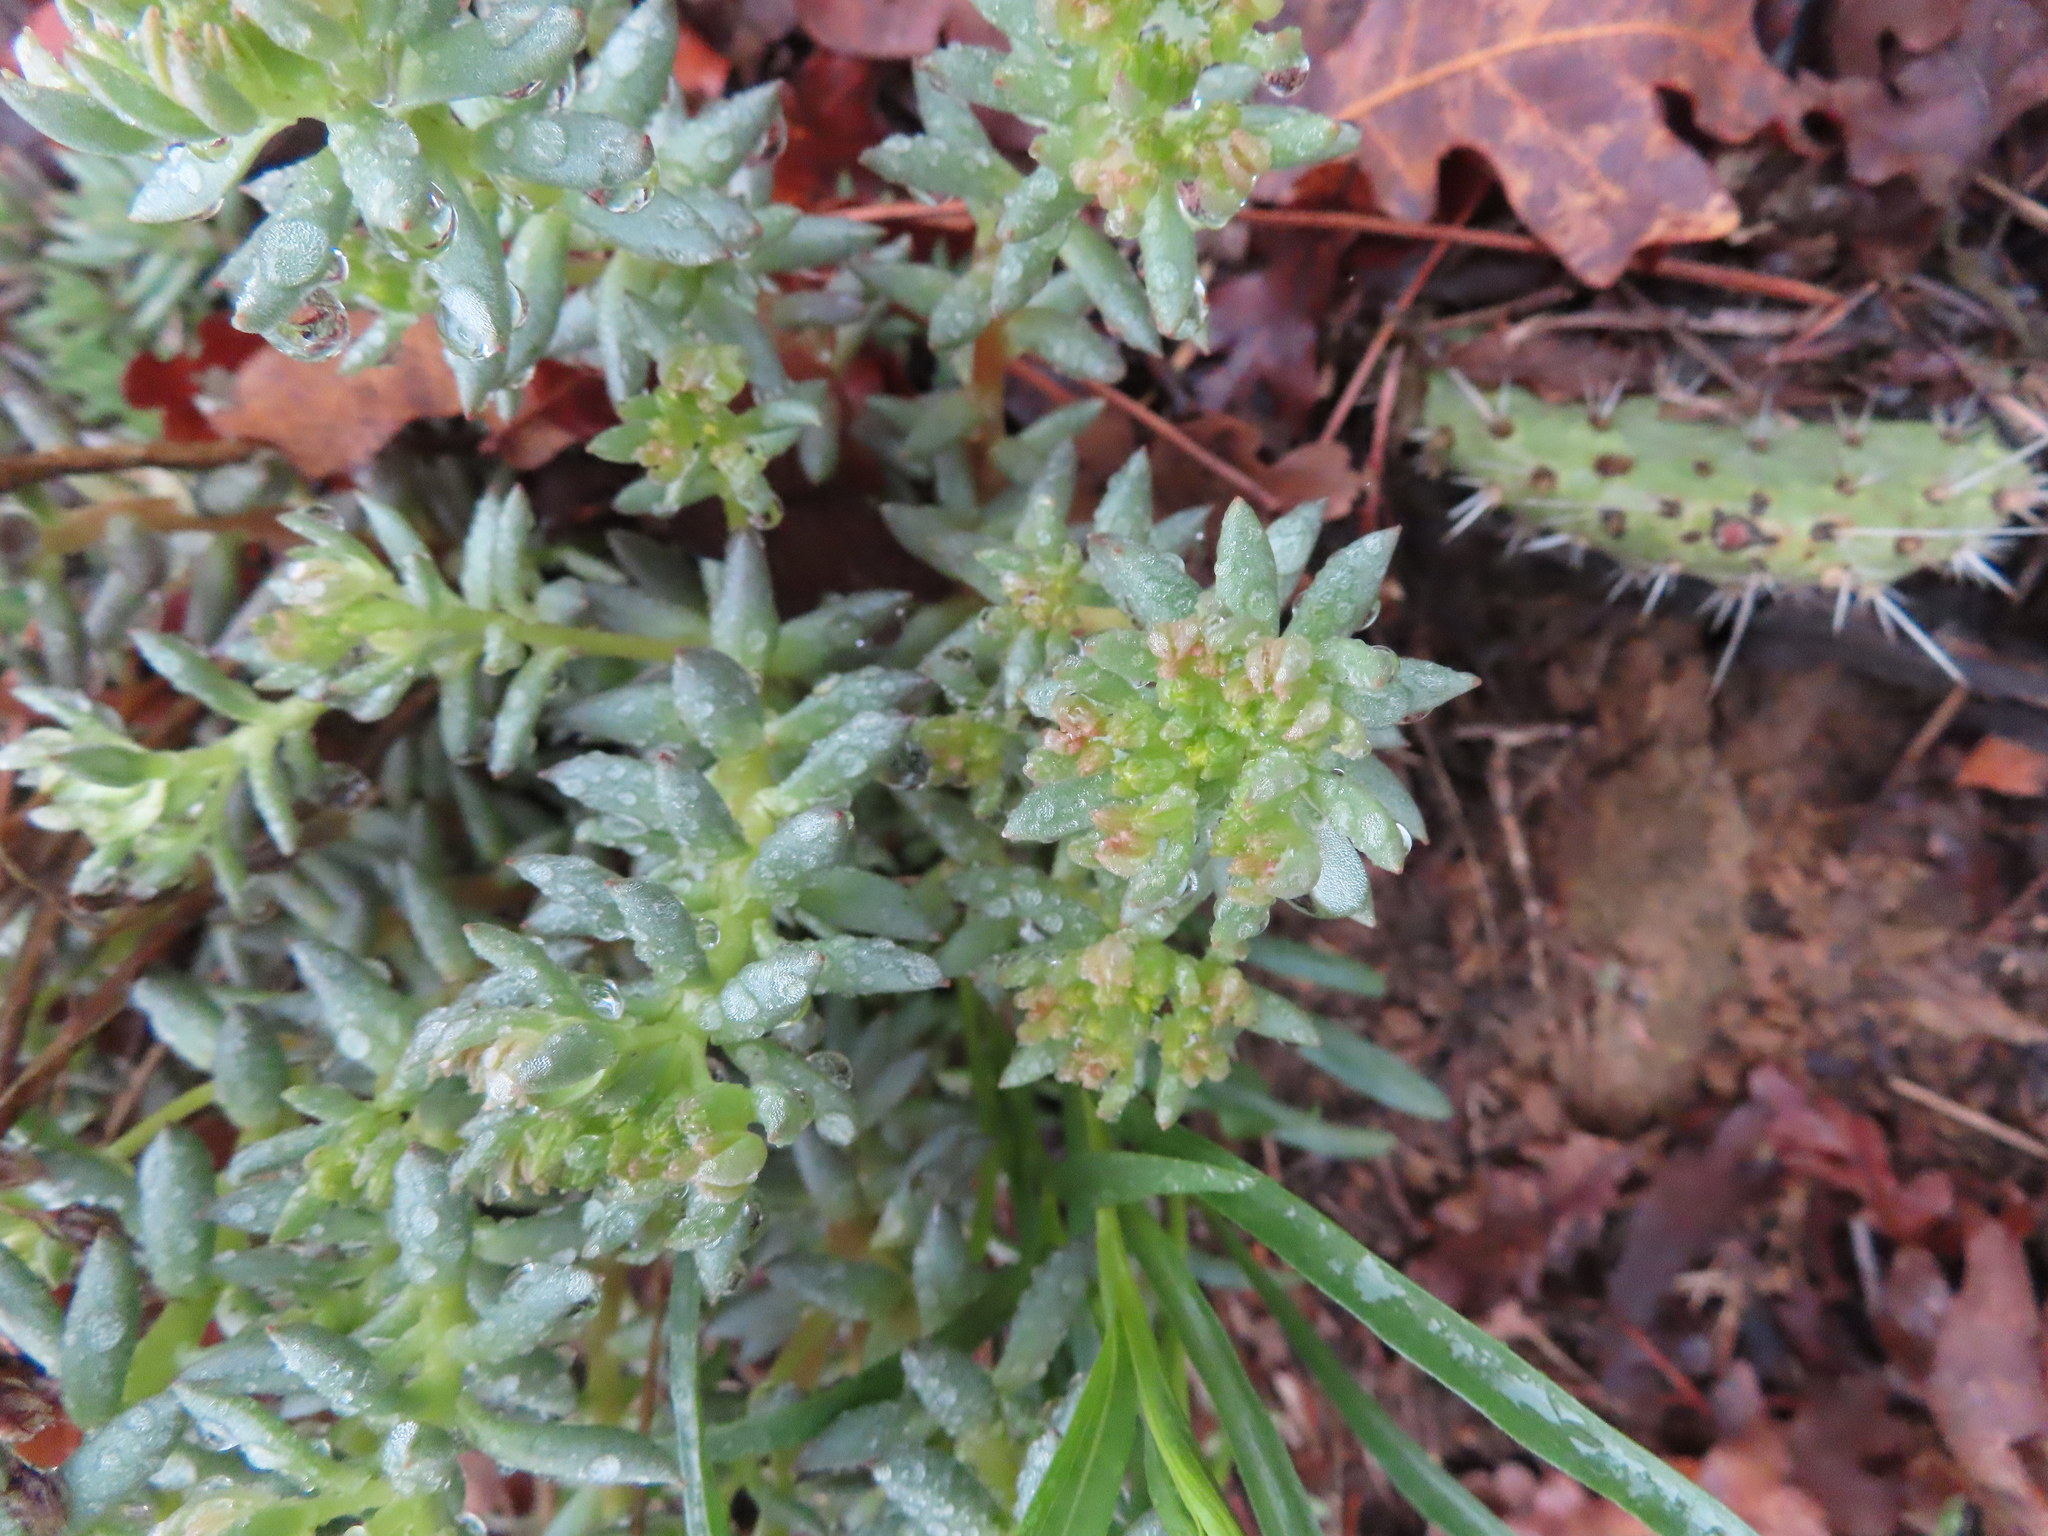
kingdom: Plantae
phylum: Tracheophyta
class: Magnoliopsida
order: Saxifragales
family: Crassulaceae
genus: Sedum
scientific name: Sedum lanceolatum
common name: Common stonecrop
